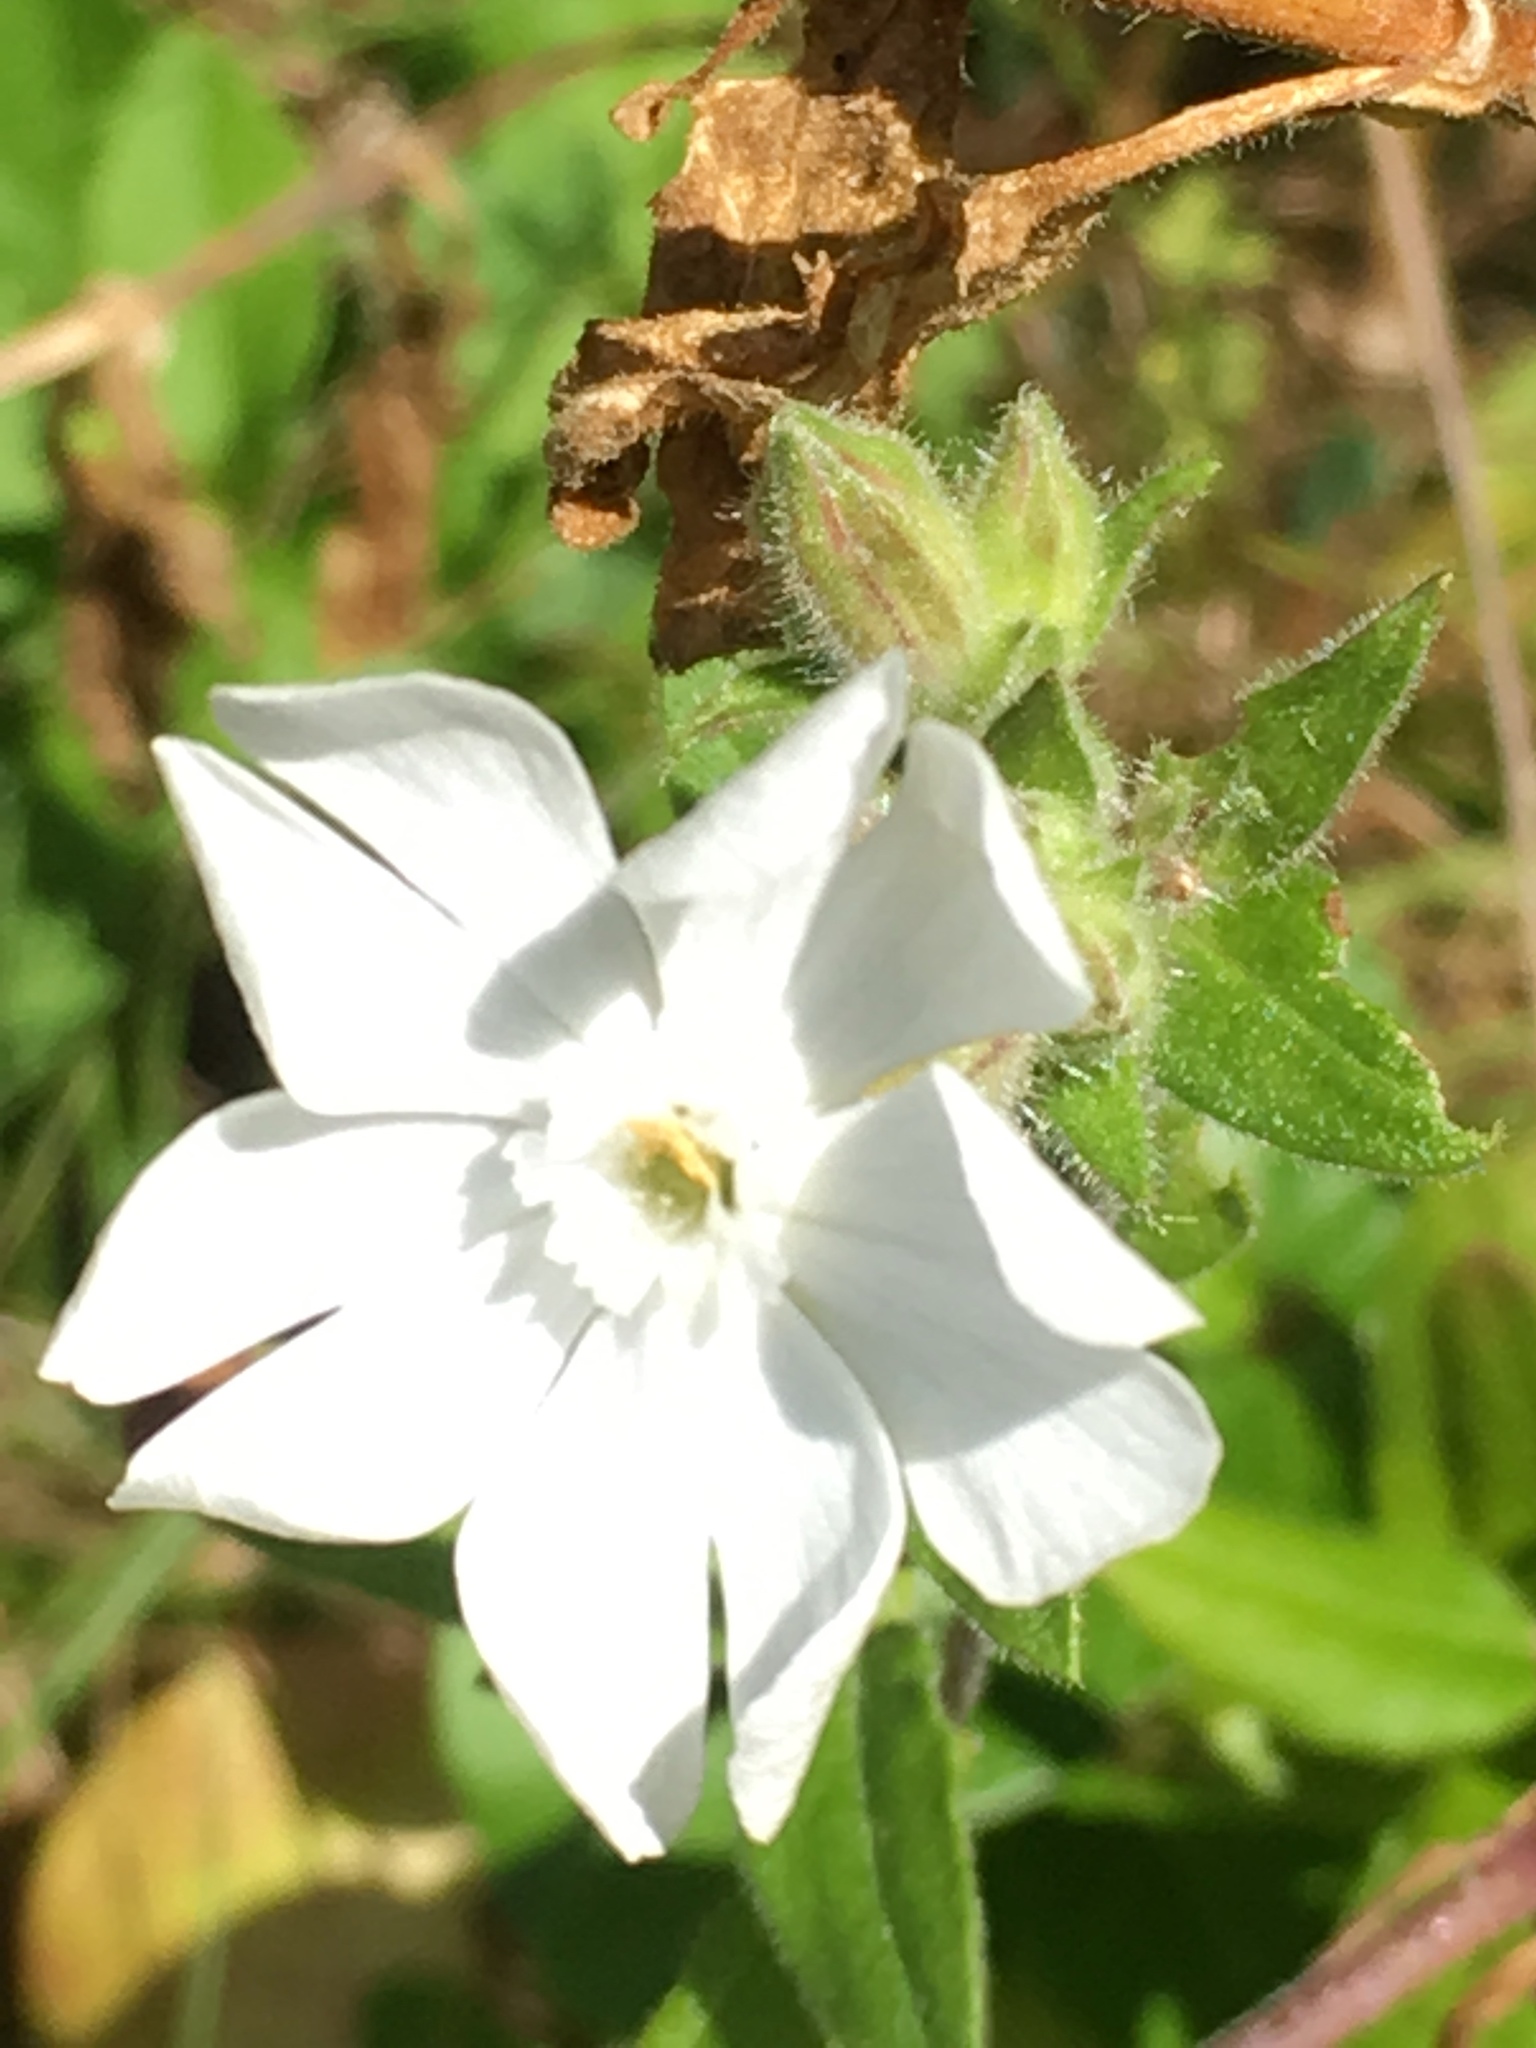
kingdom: Plantae
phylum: Tracheophyta
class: Magnoliopsida
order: Caryophyllales
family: Caryophyllaceae
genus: Silene
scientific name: Silene latifolia
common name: White campion
